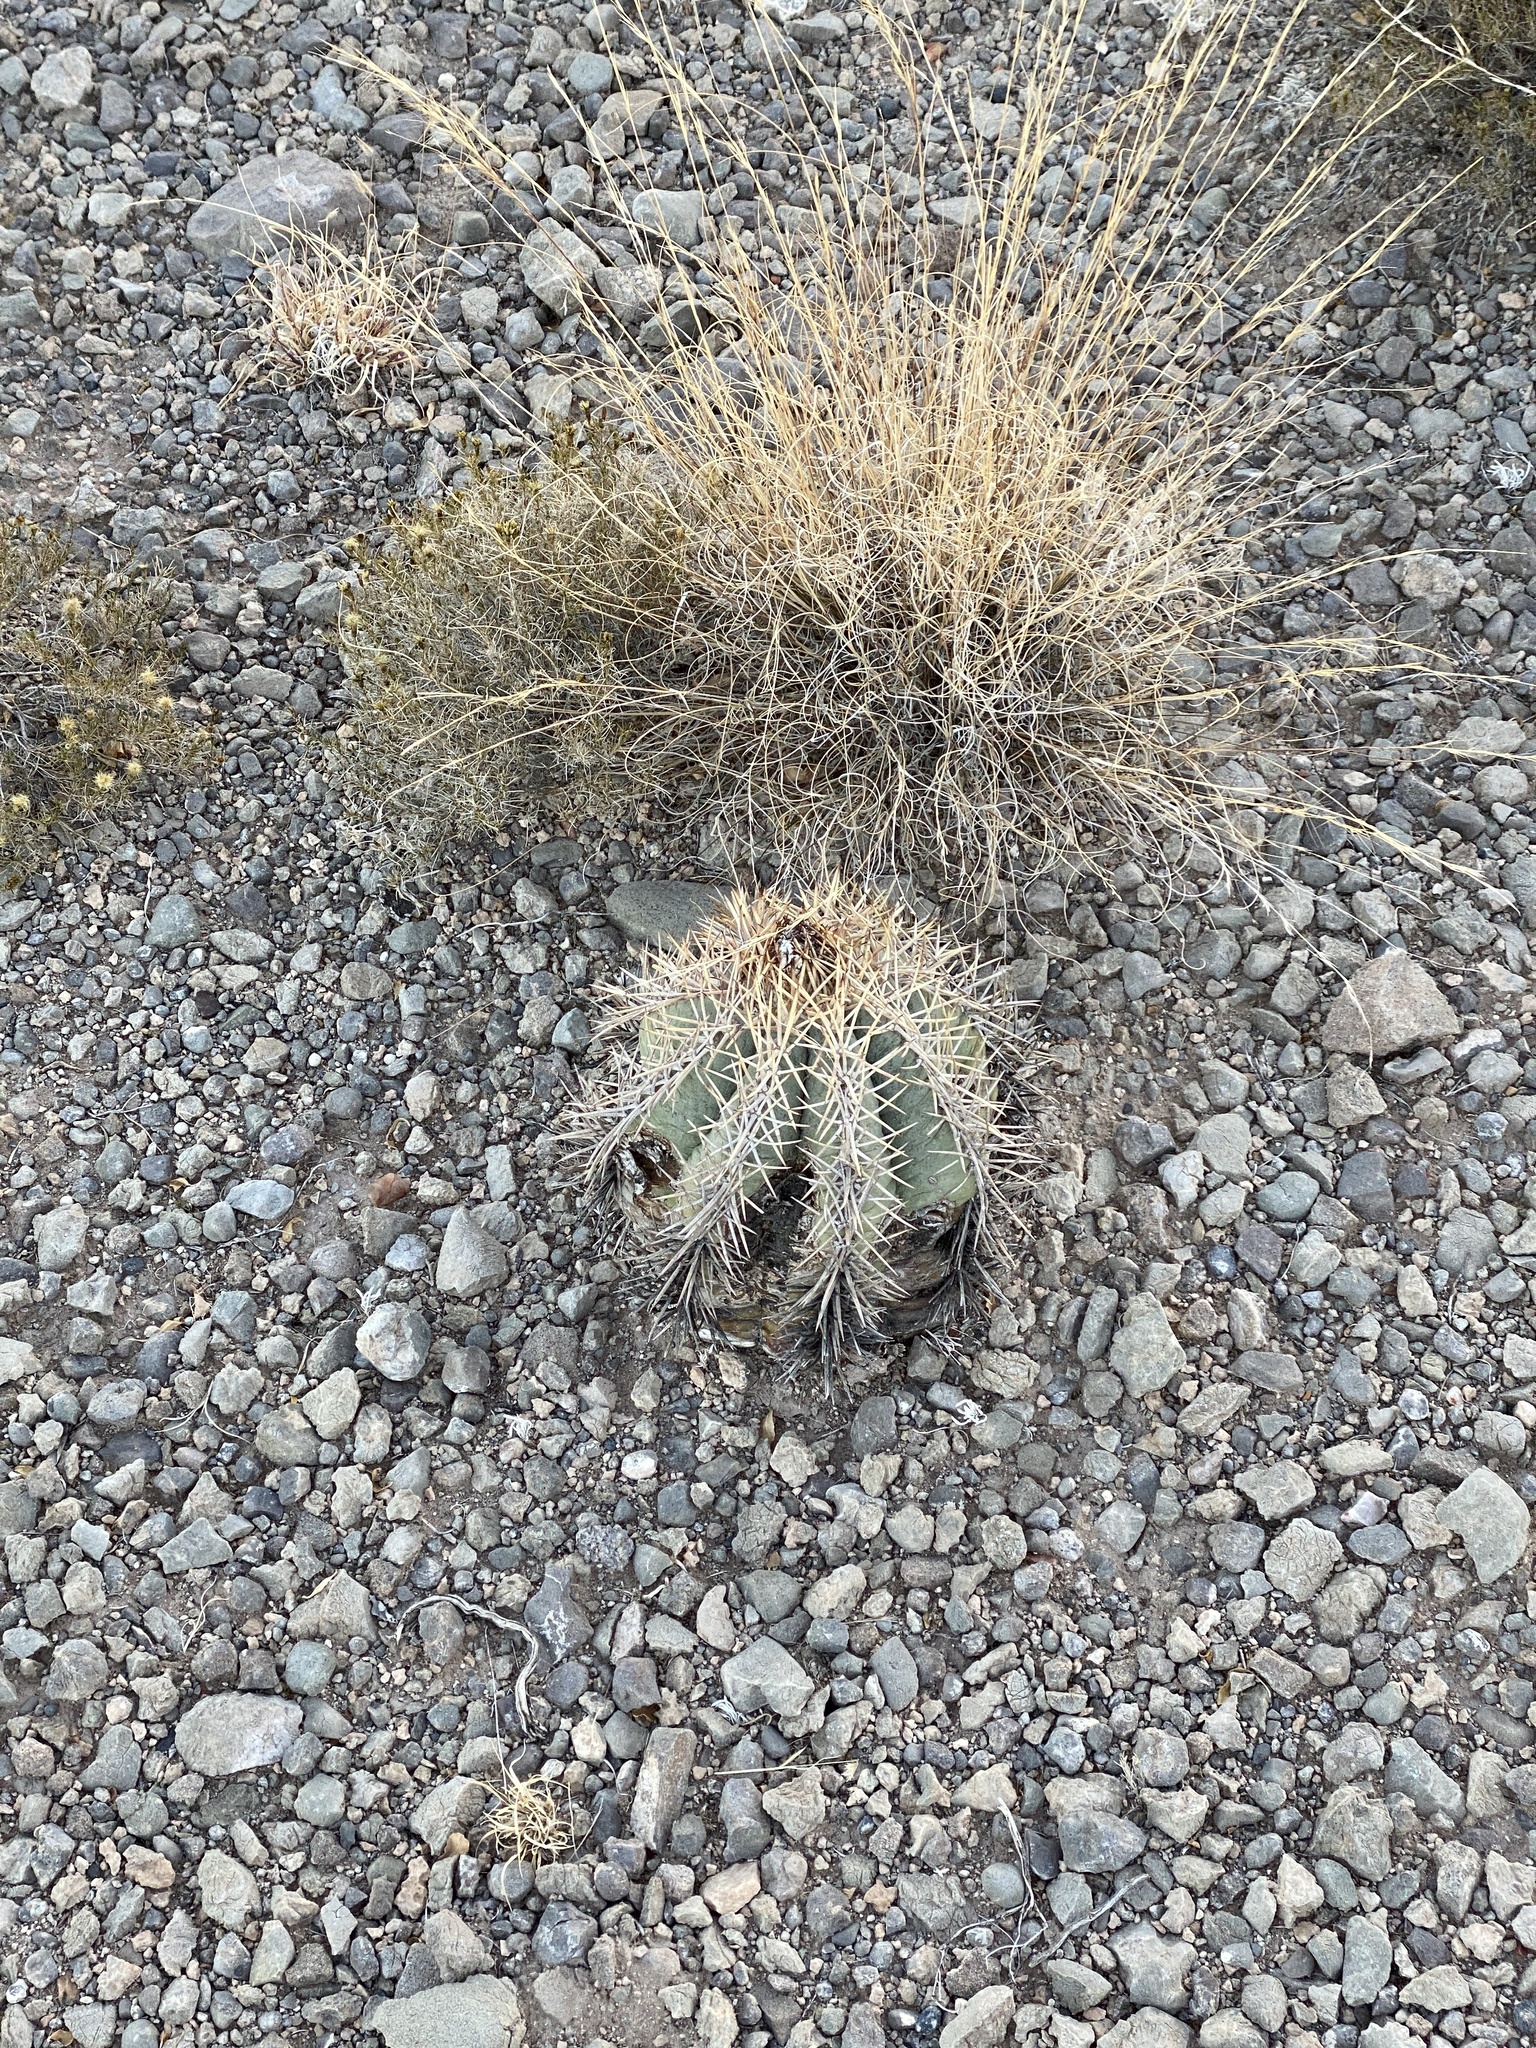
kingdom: Plantae
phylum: Tracheophyta
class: Magnoliopsida
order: Caryophyllales
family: Cactaceae
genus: Echinocactus
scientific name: Echinocactus horizonthalonius
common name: Devilshead
